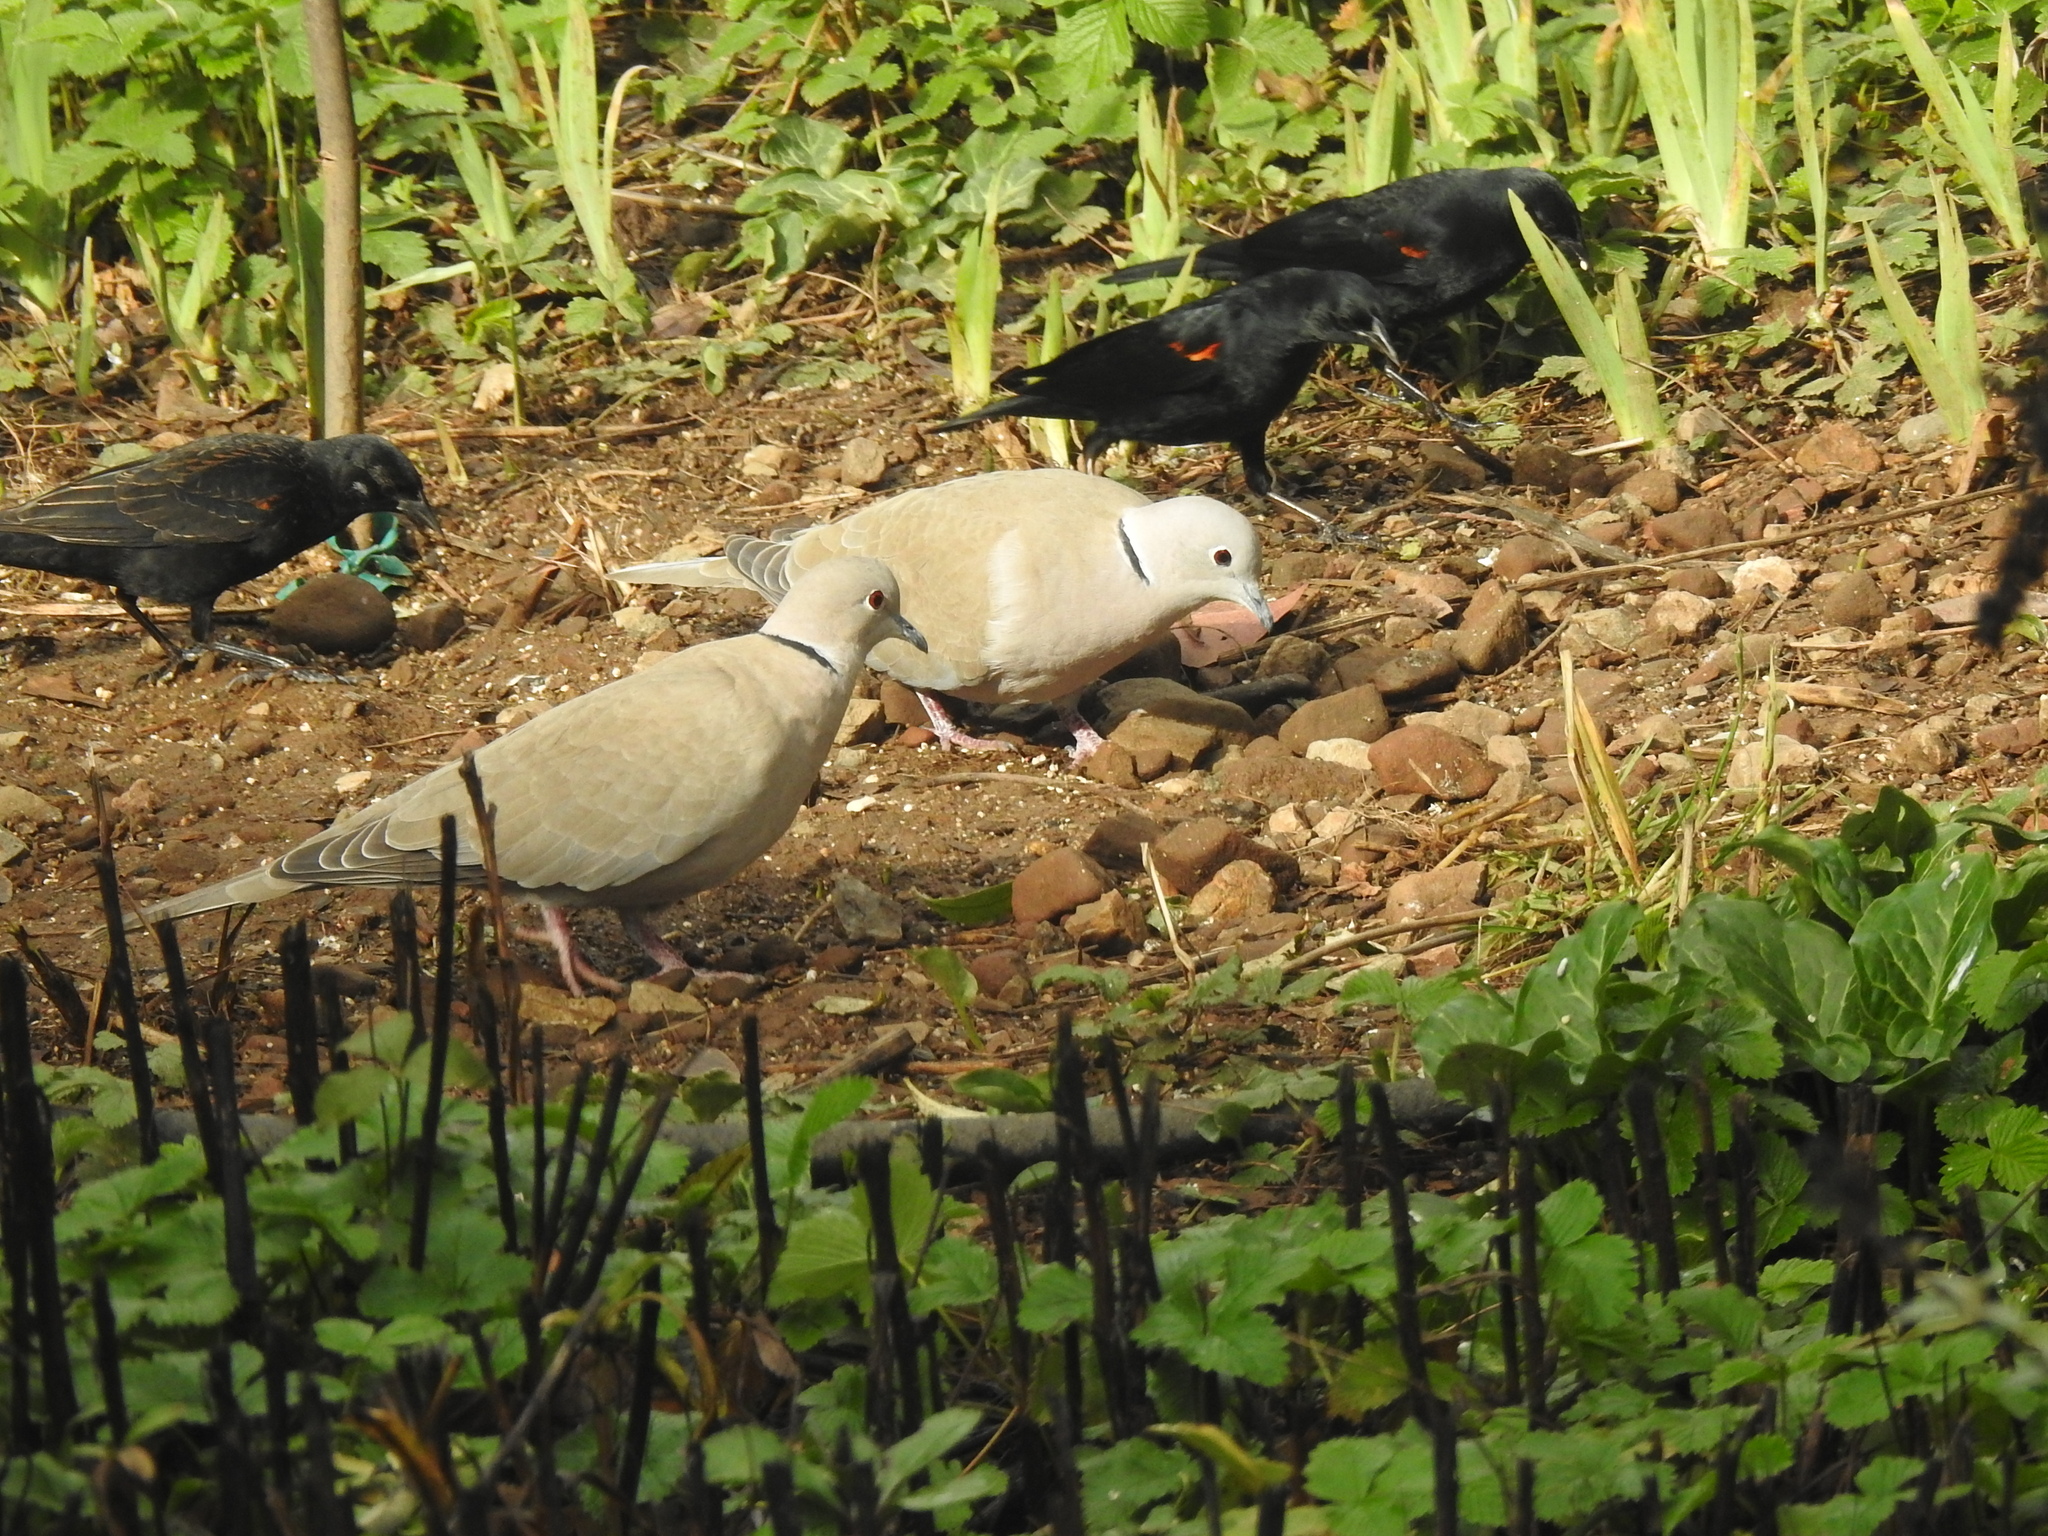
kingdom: Animalia
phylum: Chordata
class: Aves
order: Columbiformes
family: Columbidae
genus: Streptopelia
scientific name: Streptopelia decaocto
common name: Eurasian collared dove
